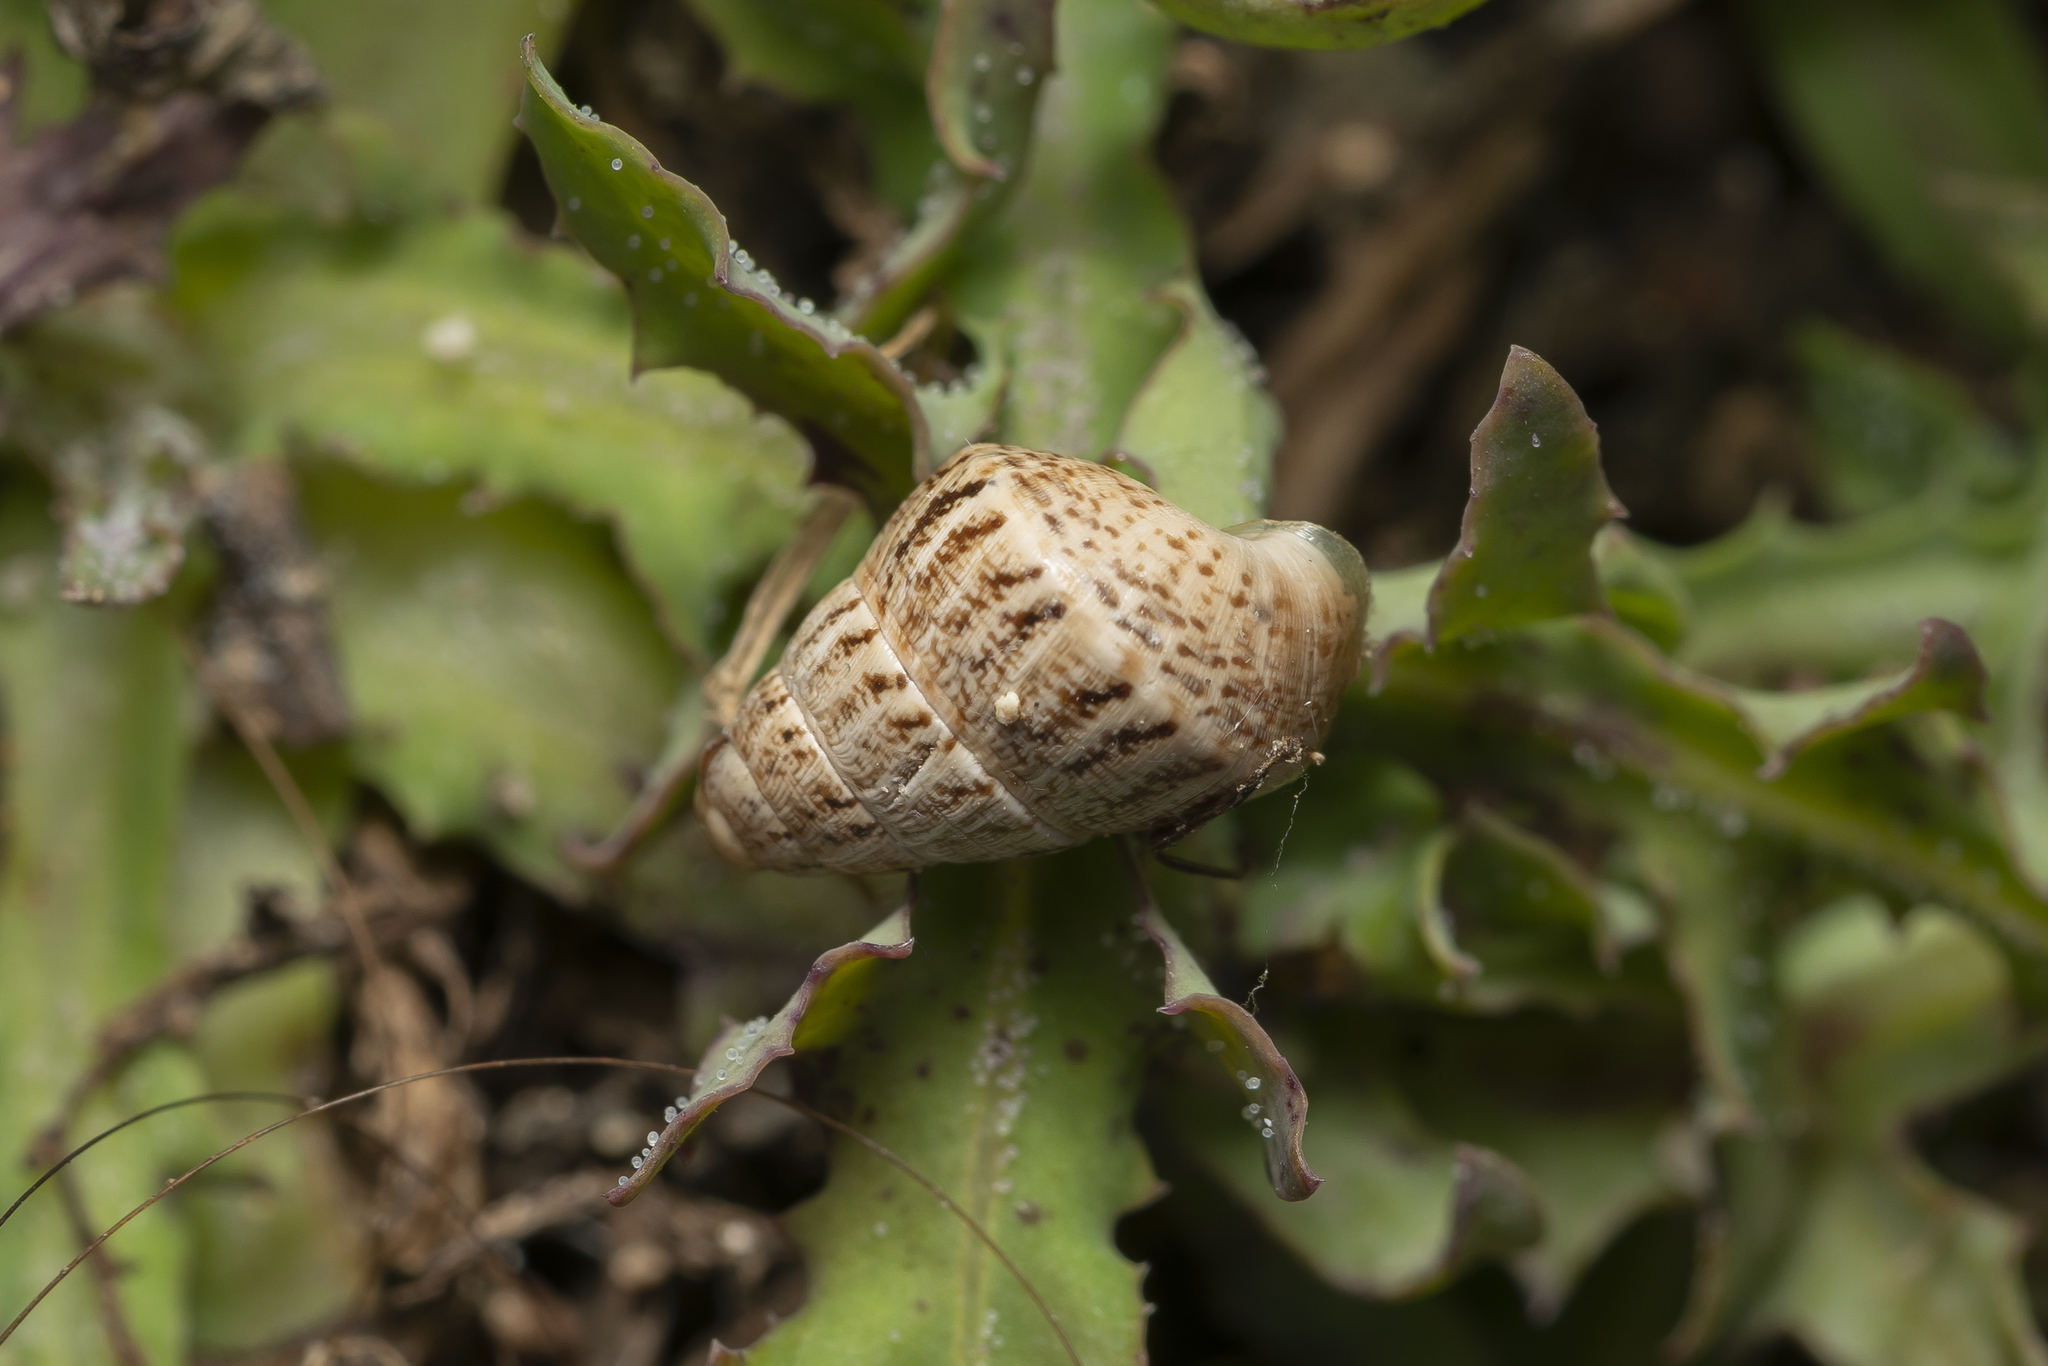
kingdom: Animalia
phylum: Mollusca
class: Gastropoda
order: Stylommatophora
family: Geomitridae
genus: Cochlicella
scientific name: Cochlicella barbara
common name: Potbellied helicellid
